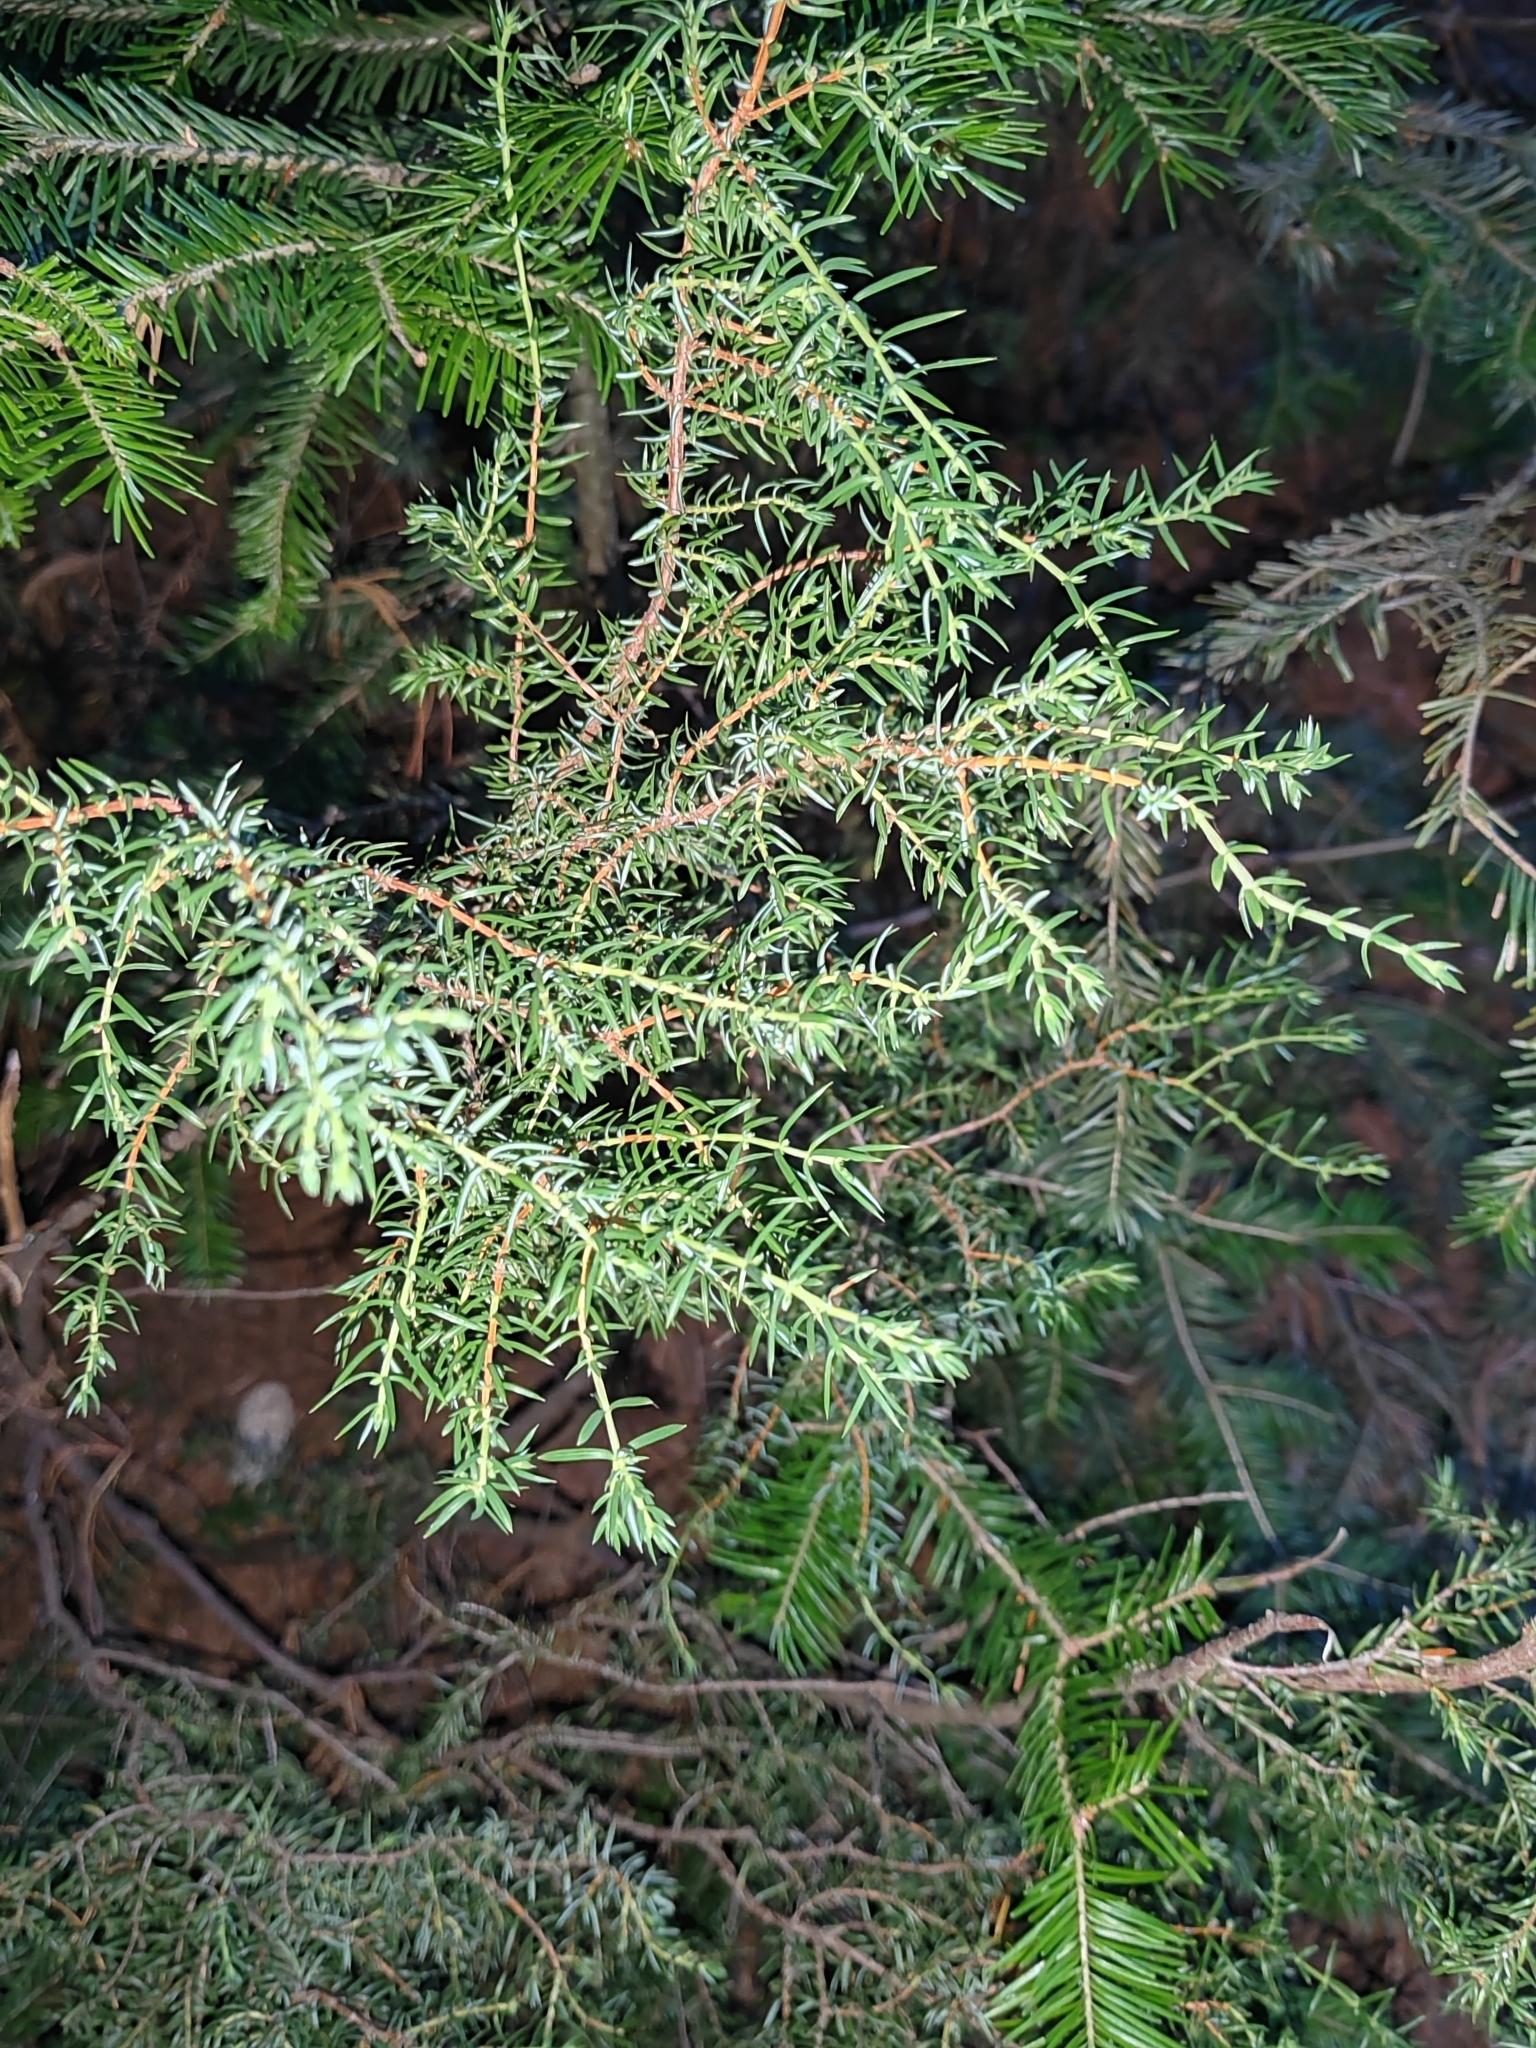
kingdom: Plantae
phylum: Tracheophyta
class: Pinopsida
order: Pinales
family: Cupressaceae
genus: Juniperus
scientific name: Juniperus communis
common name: Common juniper
